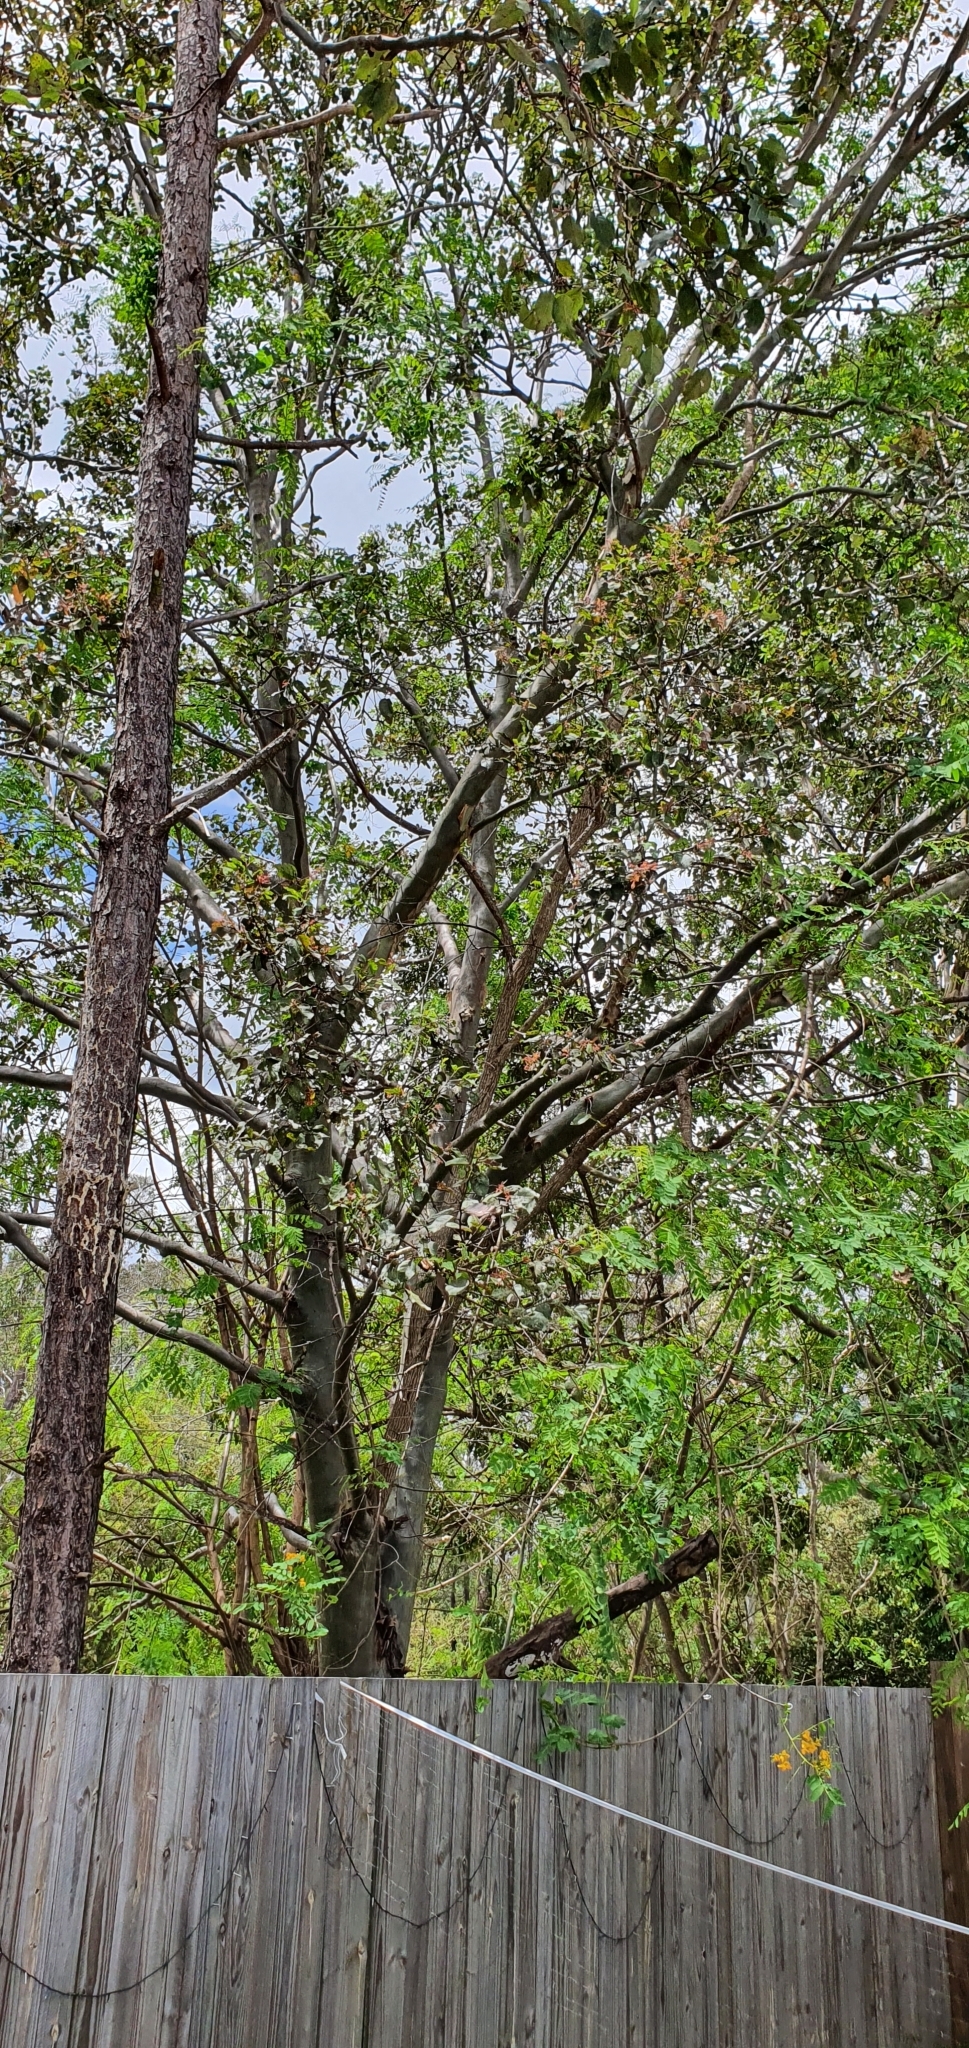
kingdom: Plantae
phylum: Tracheophyta
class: Magnoliopsida
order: Myrtales
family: Myrtaceae
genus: Corymbia
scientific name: Corymbia torelliana
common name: Cadaghi
